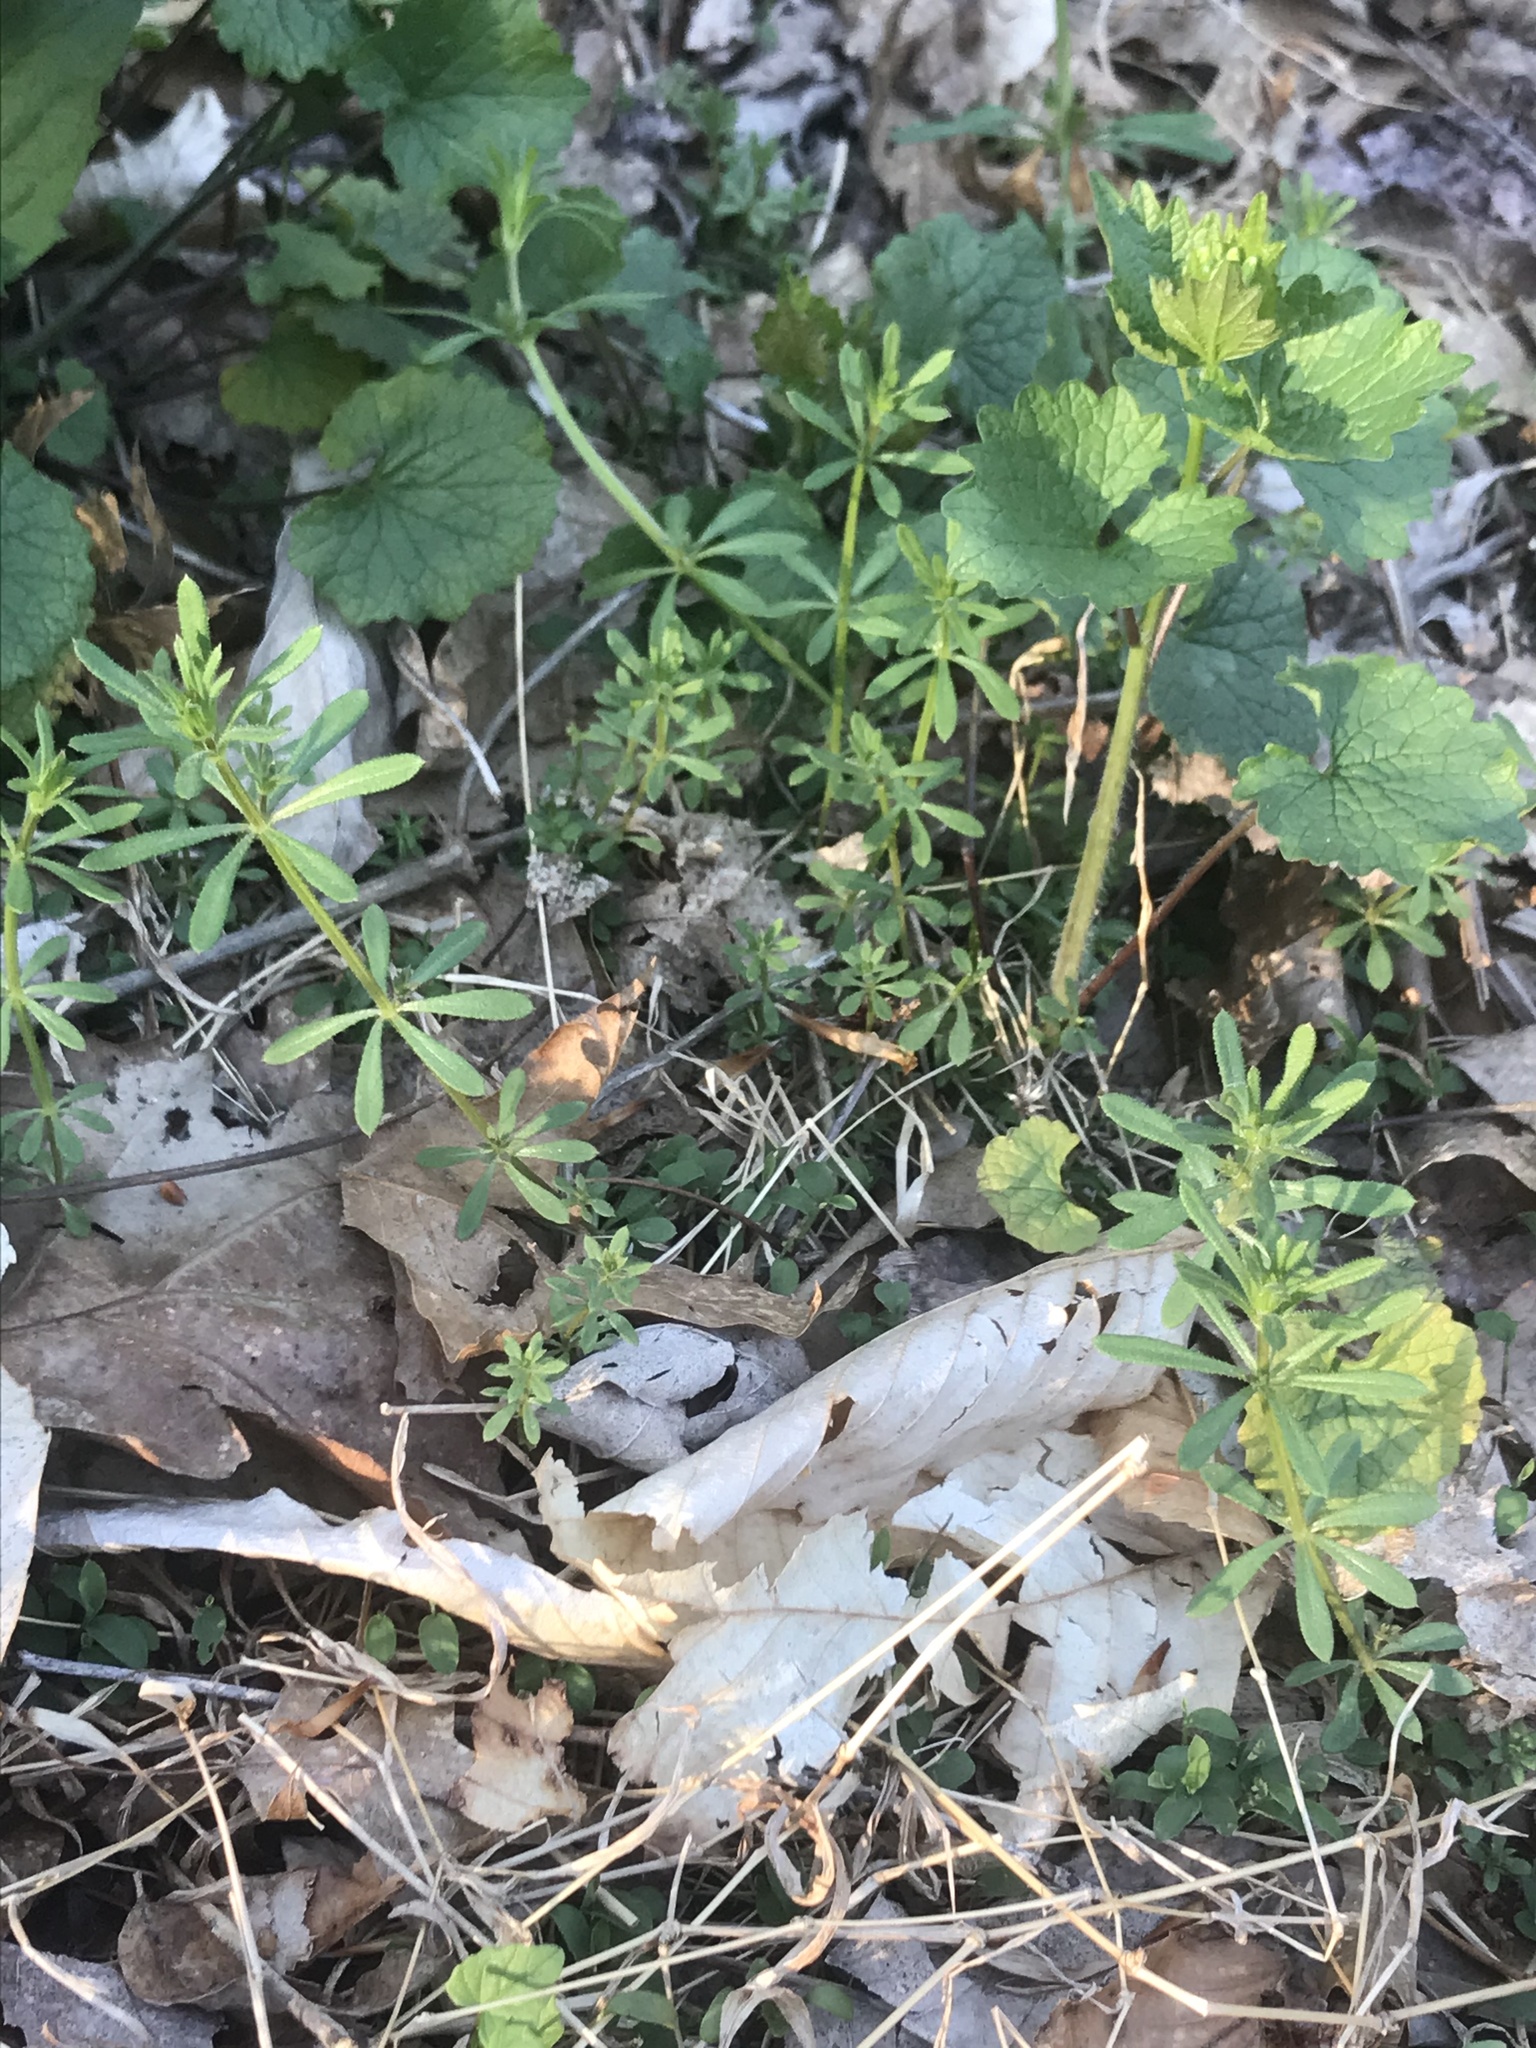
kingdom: Plantae
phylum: Tracheophyta
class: Magnoliopsida
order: Gentianales
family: Rubiaceae
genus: Galium
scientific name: Galium aparine
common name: Cleavers
